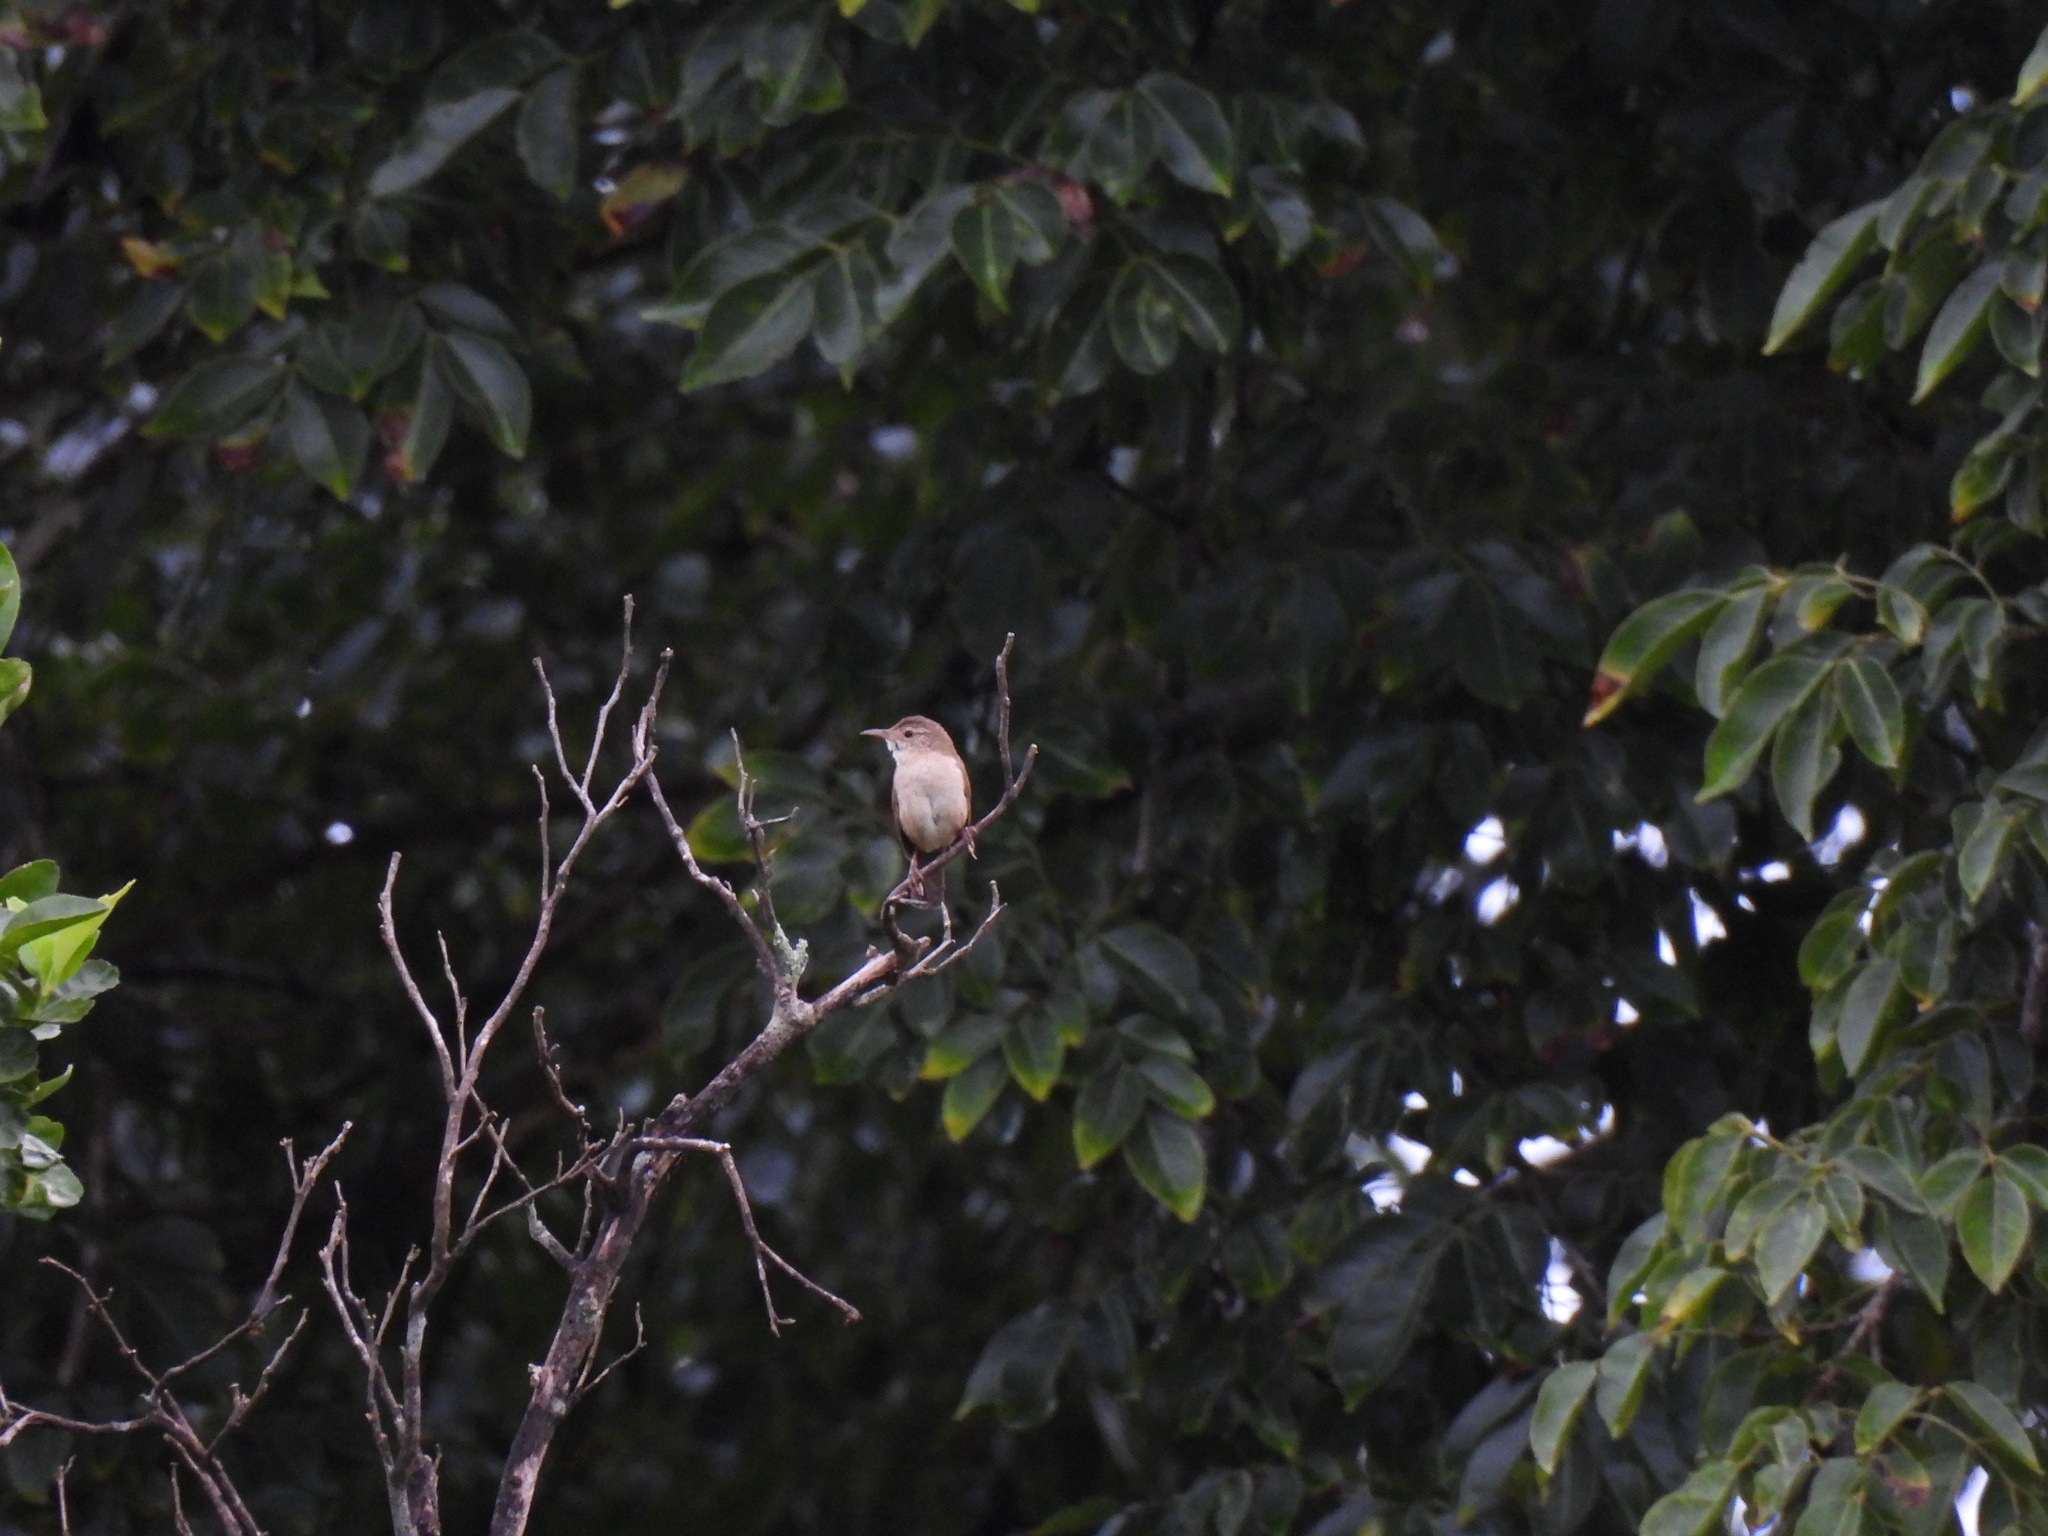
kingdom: Animalia
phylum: Chordata
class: Aves
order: Passeriformes
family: Troglodytidae
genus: Troglodytes
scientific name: Troglodytes aedon
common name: House wren
